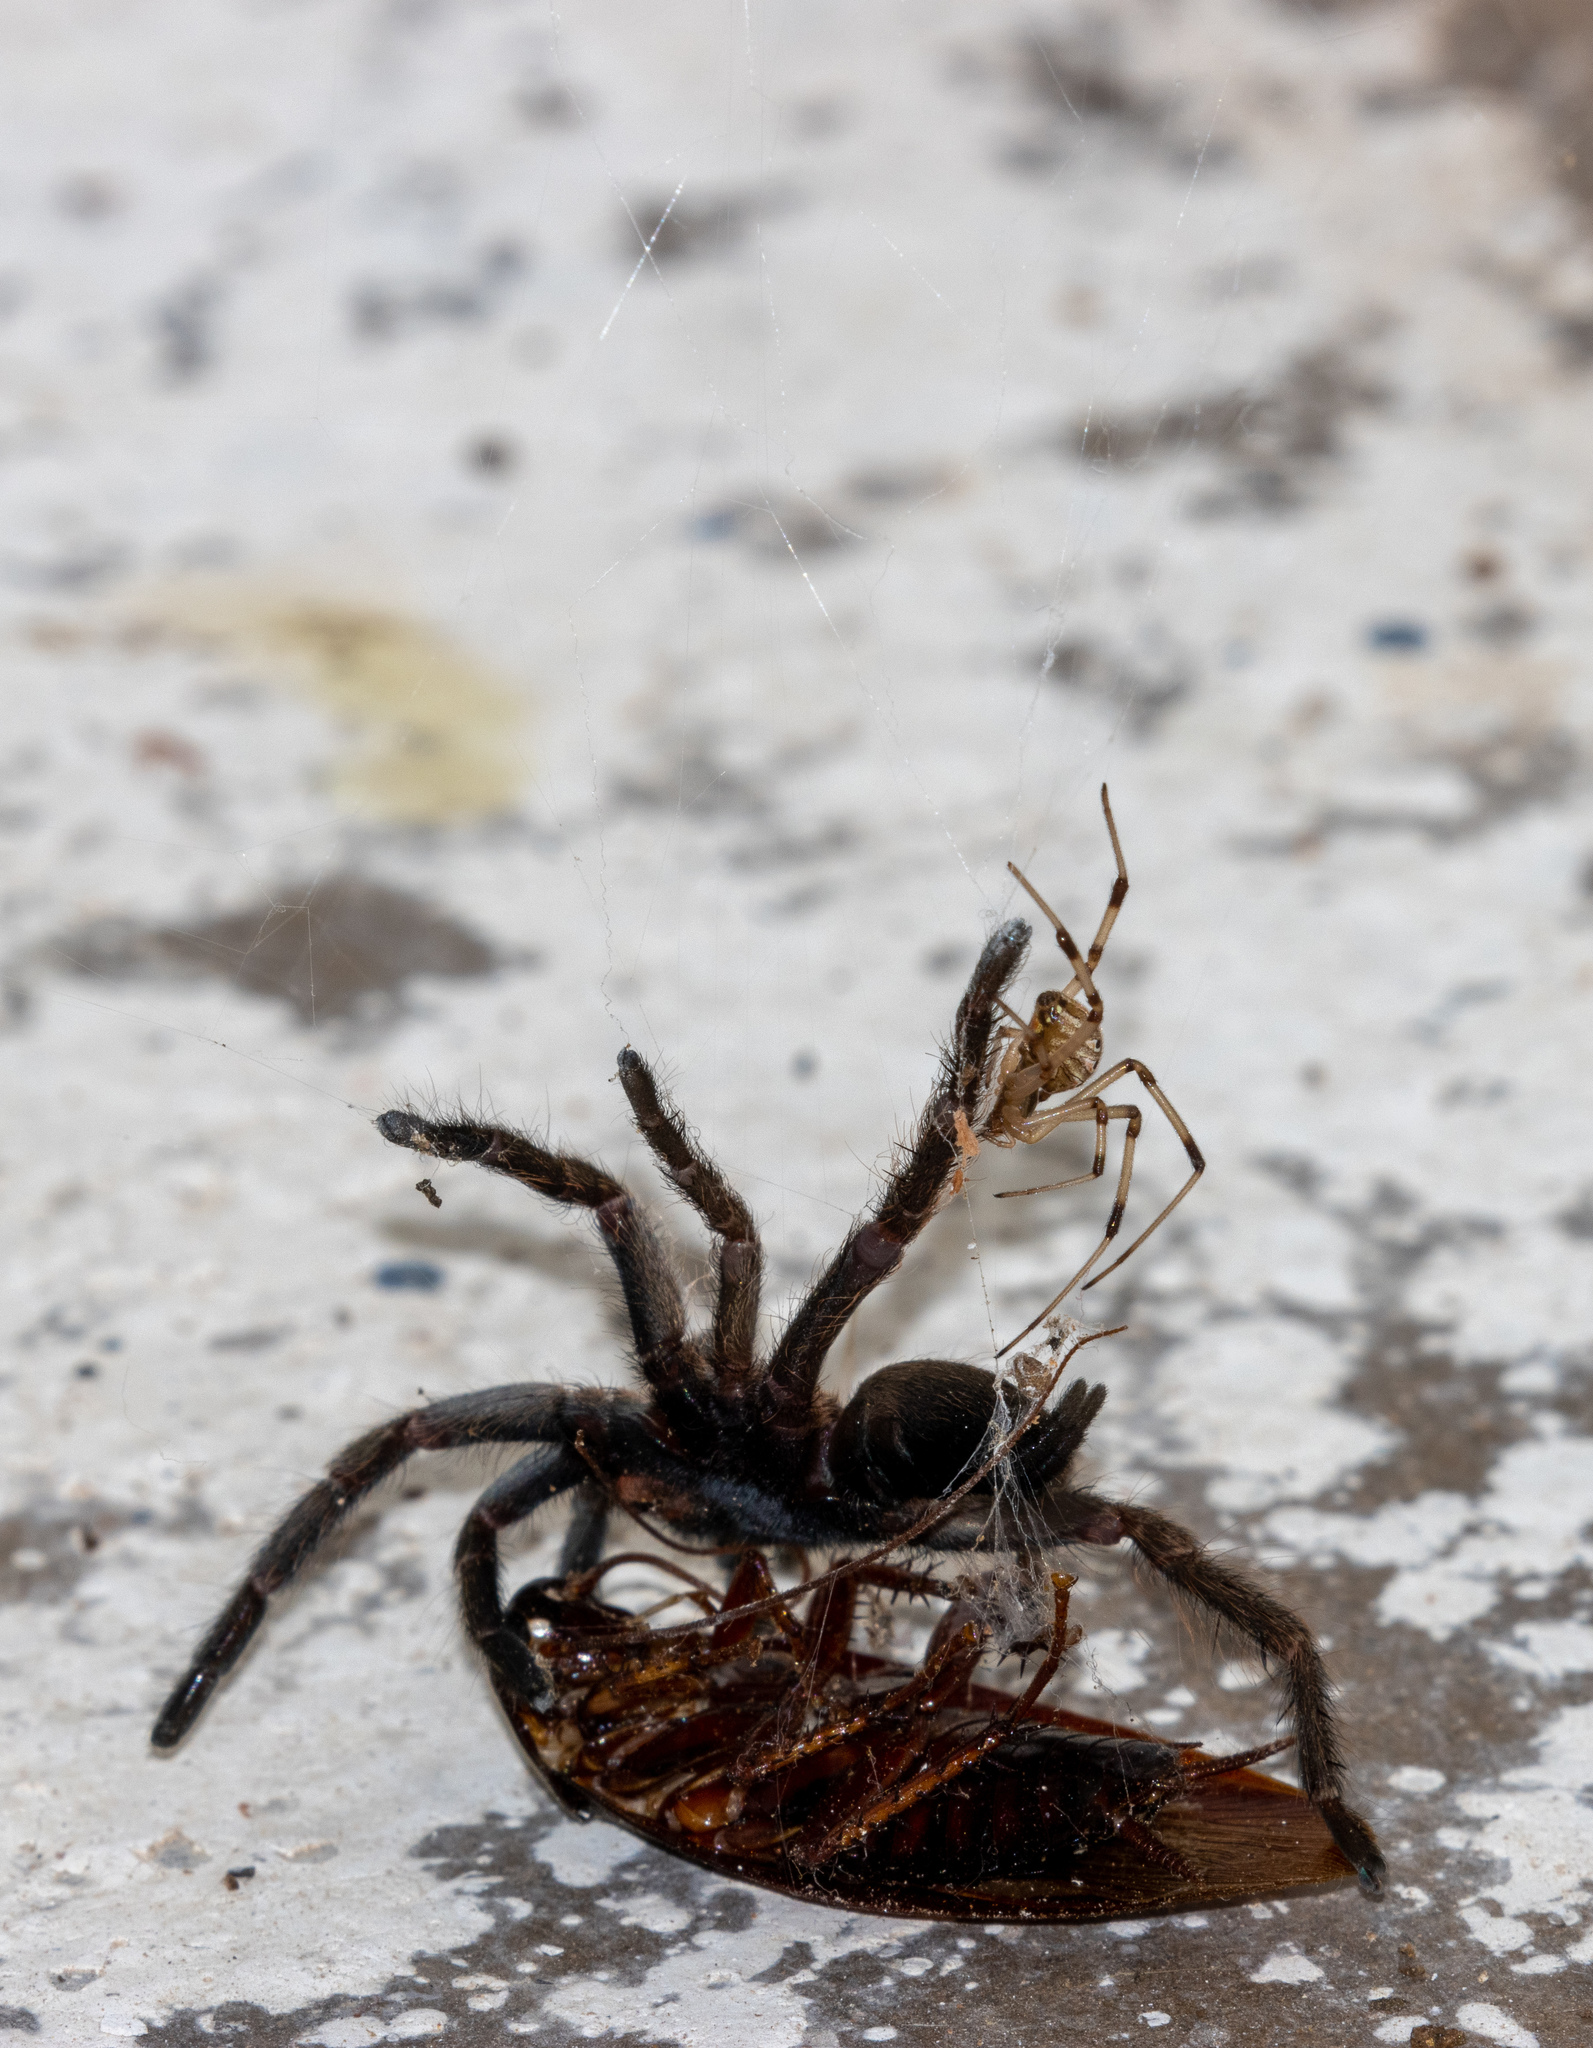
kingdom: Animalia
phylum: Arthropoda
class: Arachnida
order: Araneae
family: Theridiidae
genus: Latrodectus
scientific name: Latrodectus geometricus
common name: Brown widow spider
